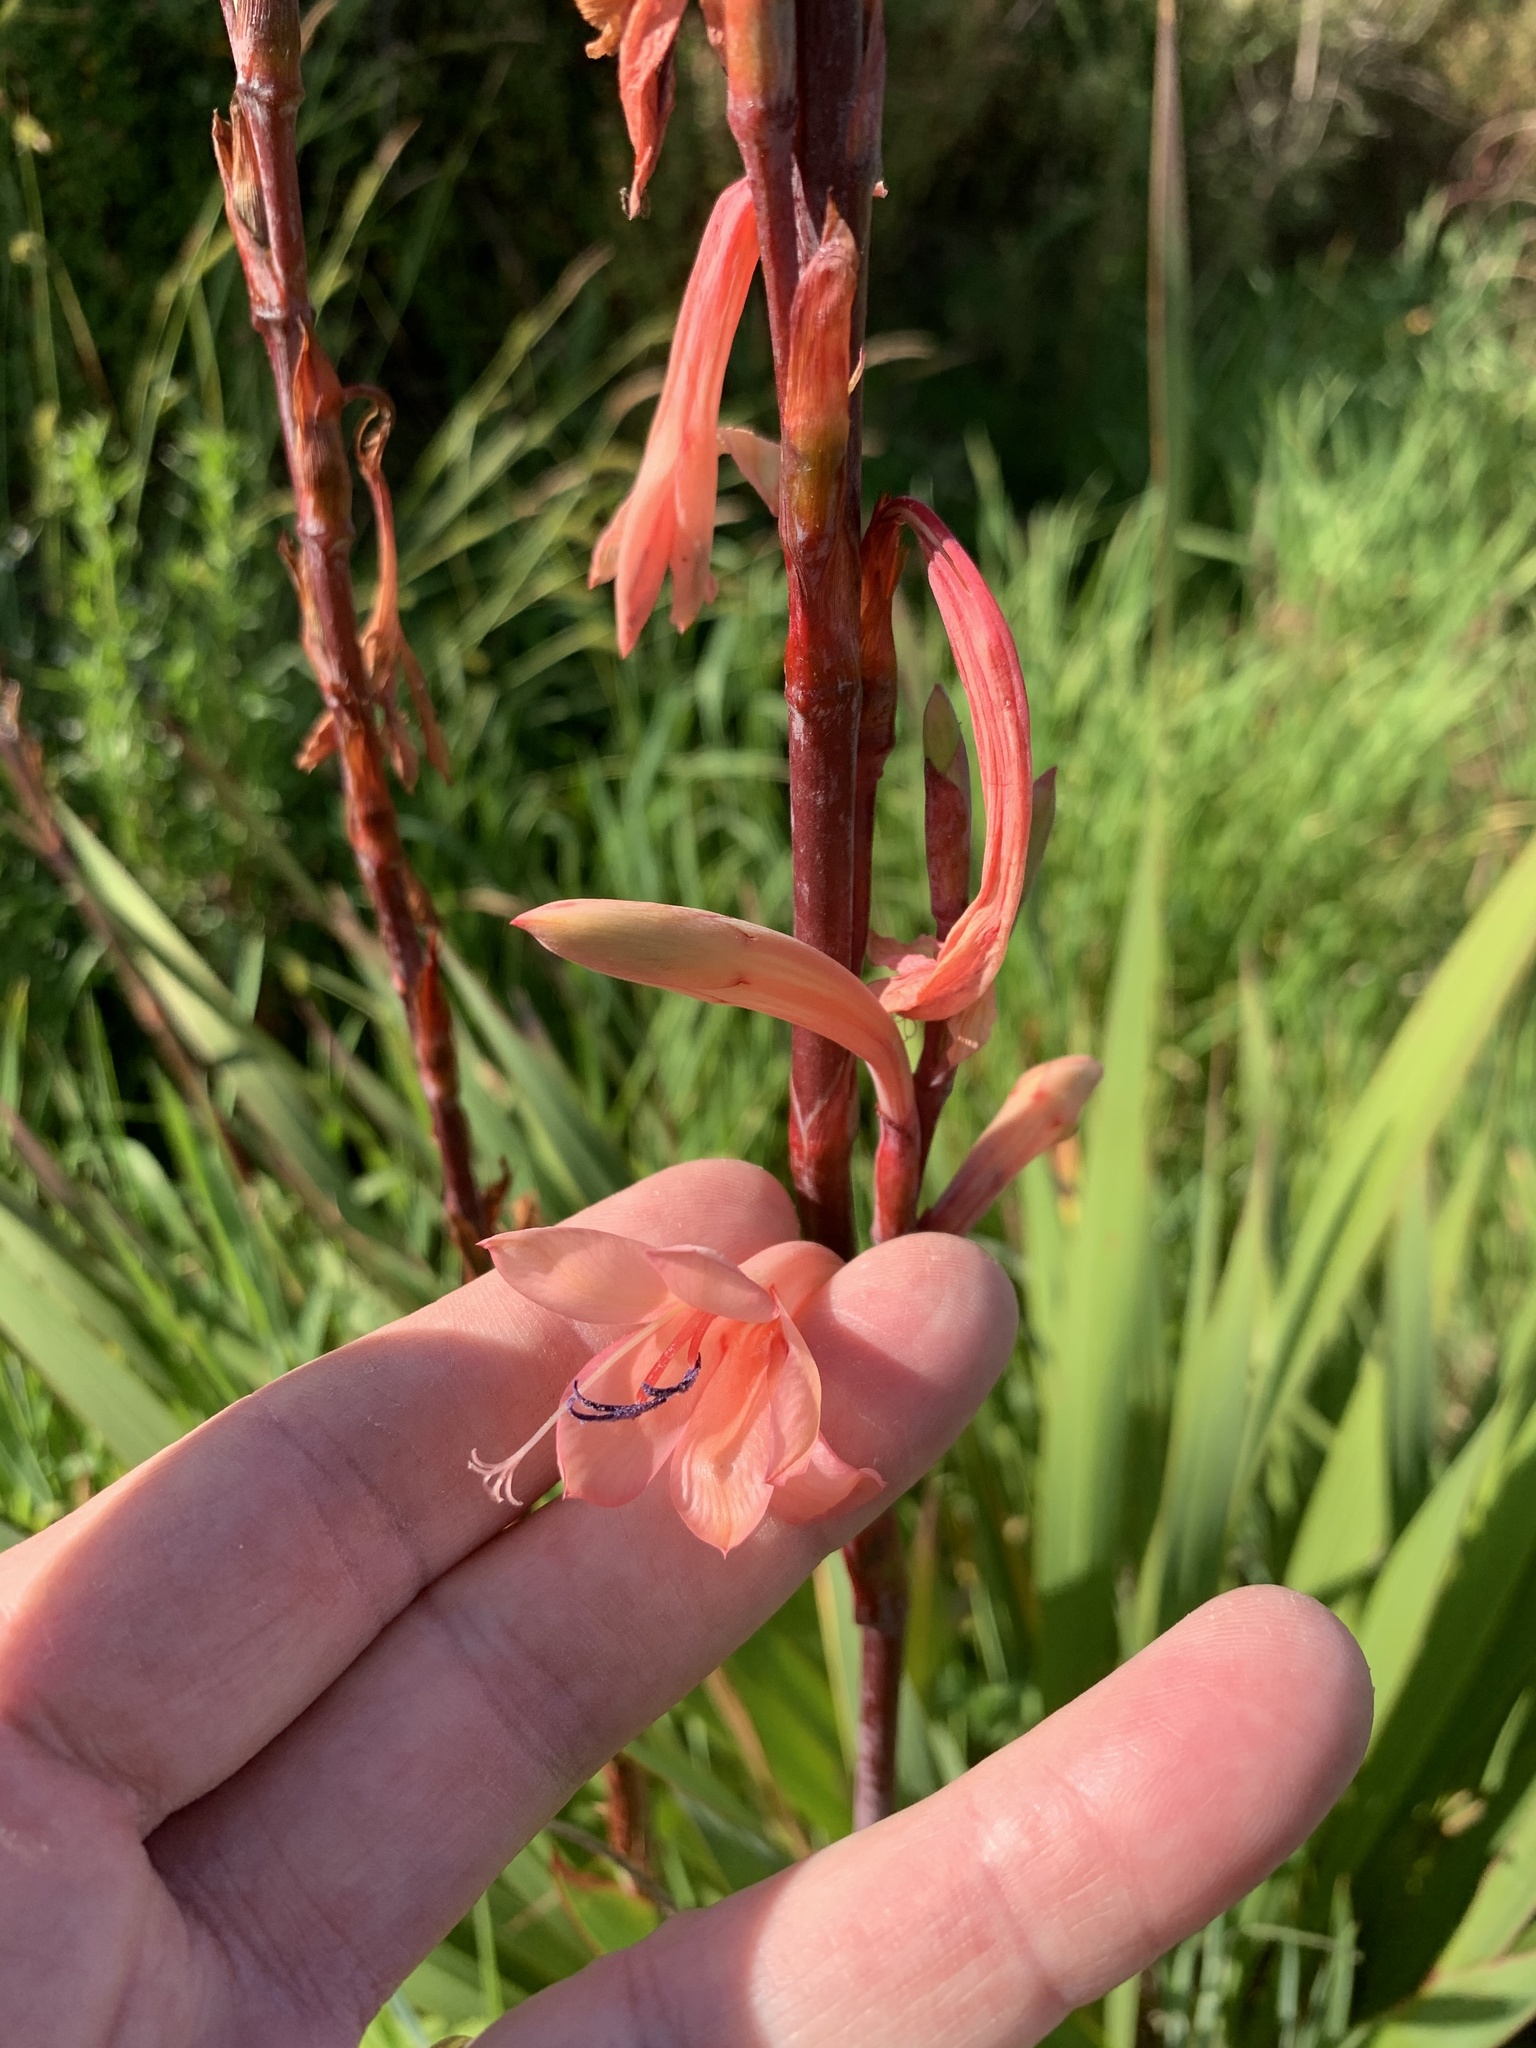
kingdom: Plantae
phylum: Tracheophyta
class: Liliopsida
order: Asparagales
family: Iridaceae
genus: Watsonia
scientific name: Watsonia meriana
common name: Bulbil bugle-lily
